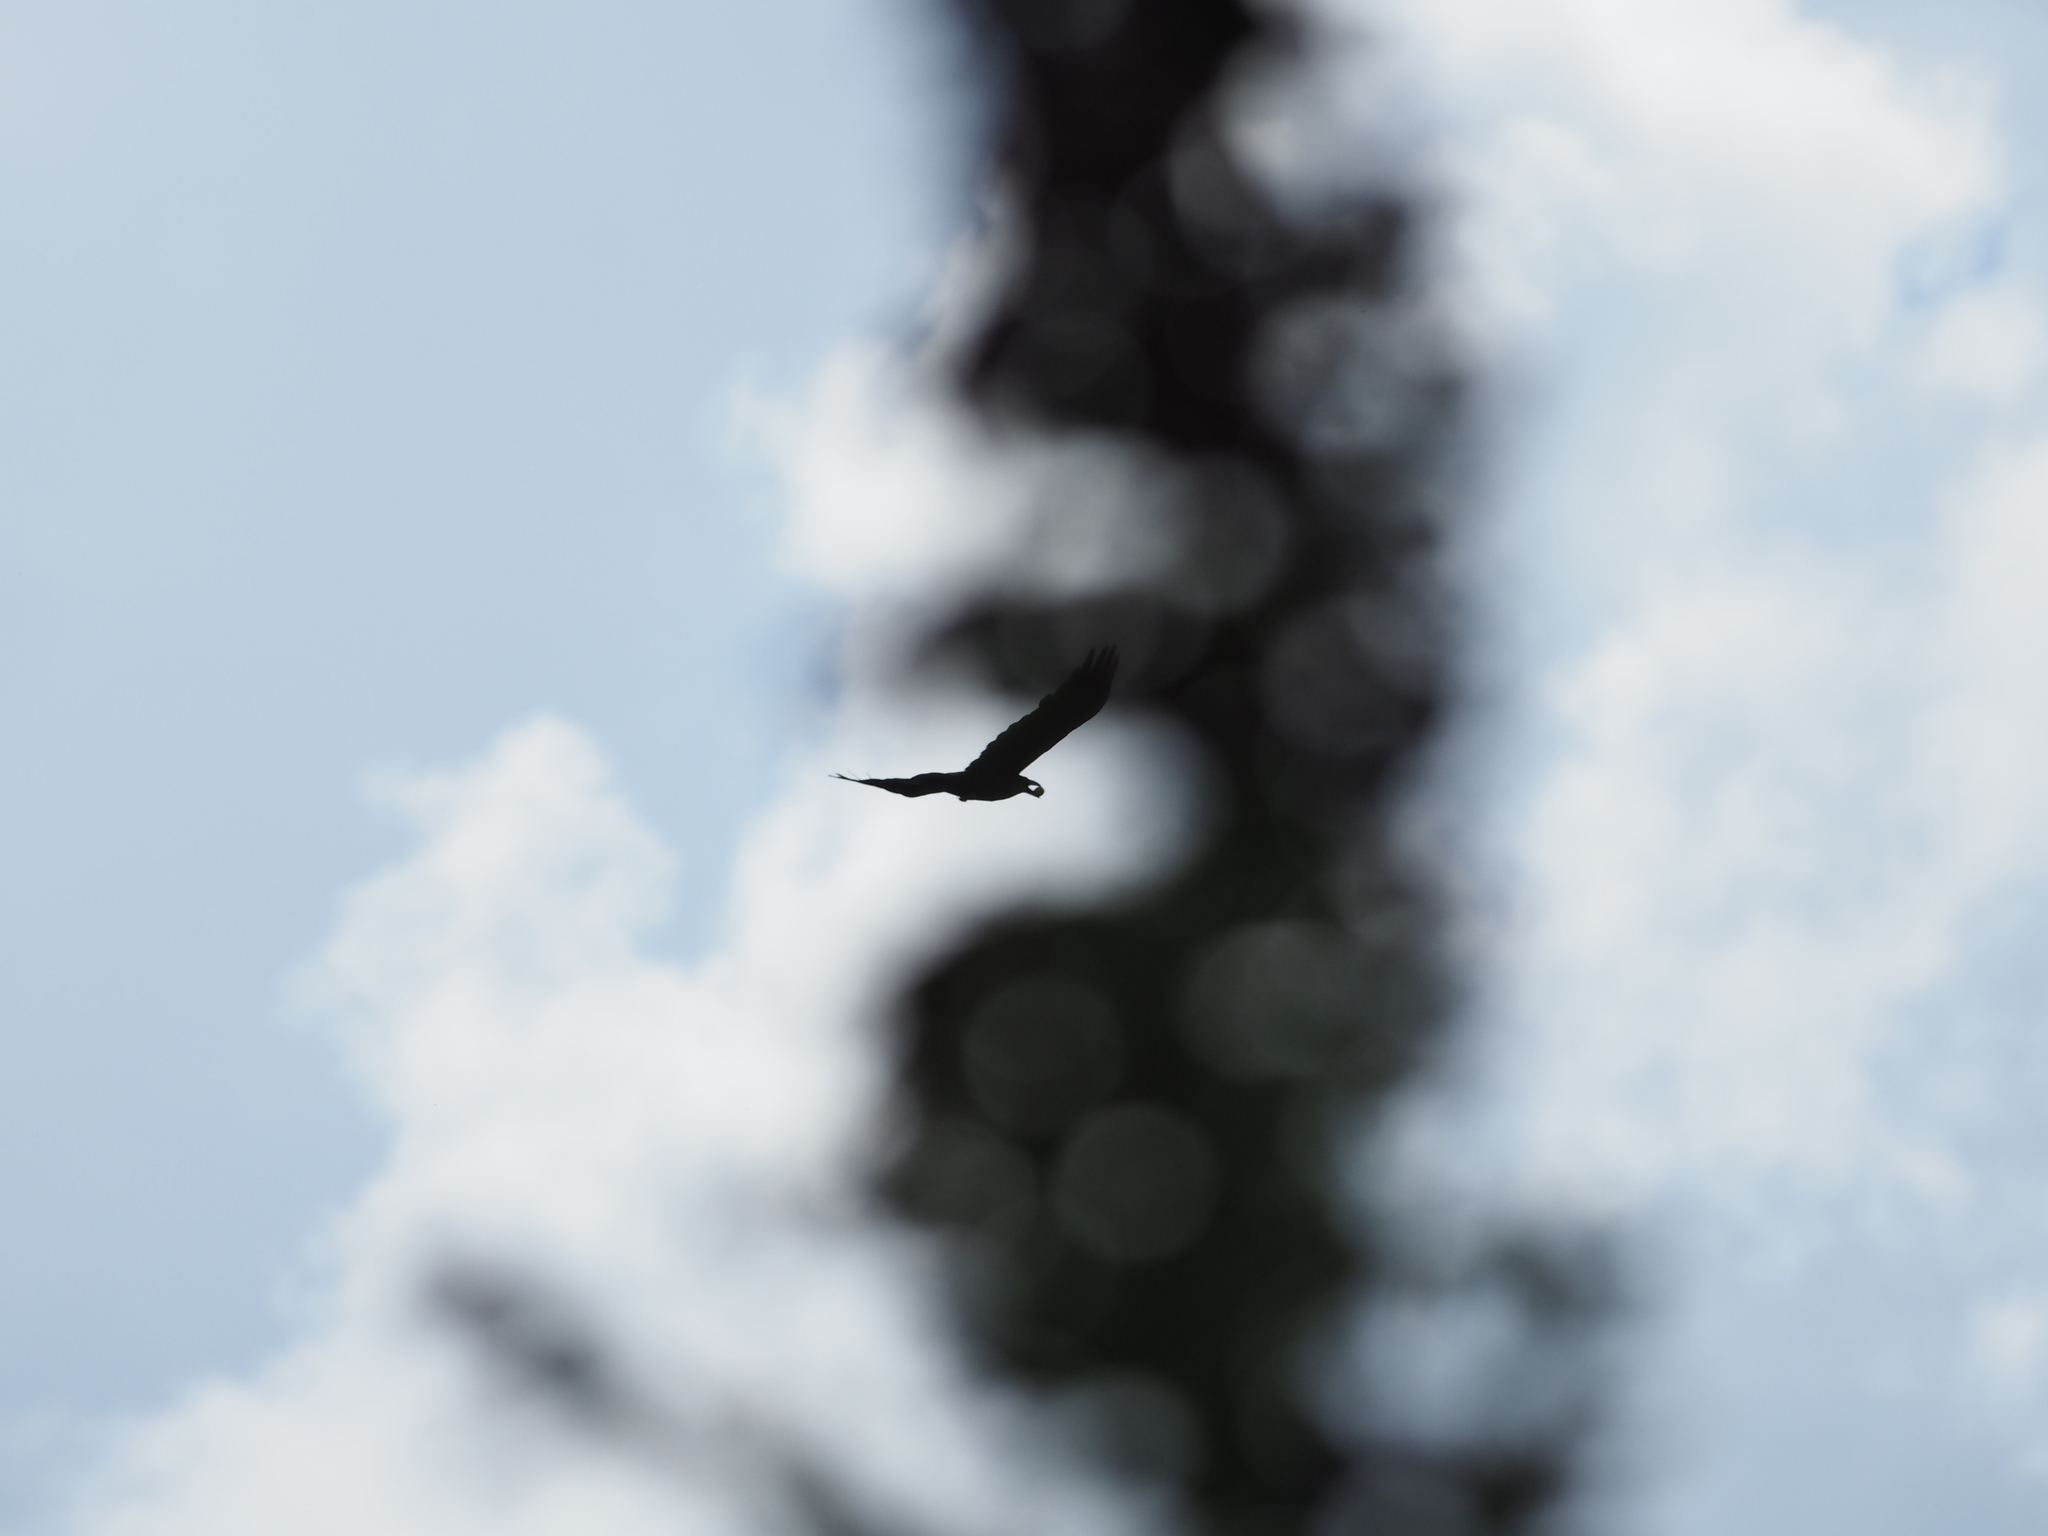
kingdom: Animalia
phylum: Chordata
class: Aves
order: Passeriformes
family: Corvidae
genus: Corvus
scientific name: Corvus corax
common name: Common raven
